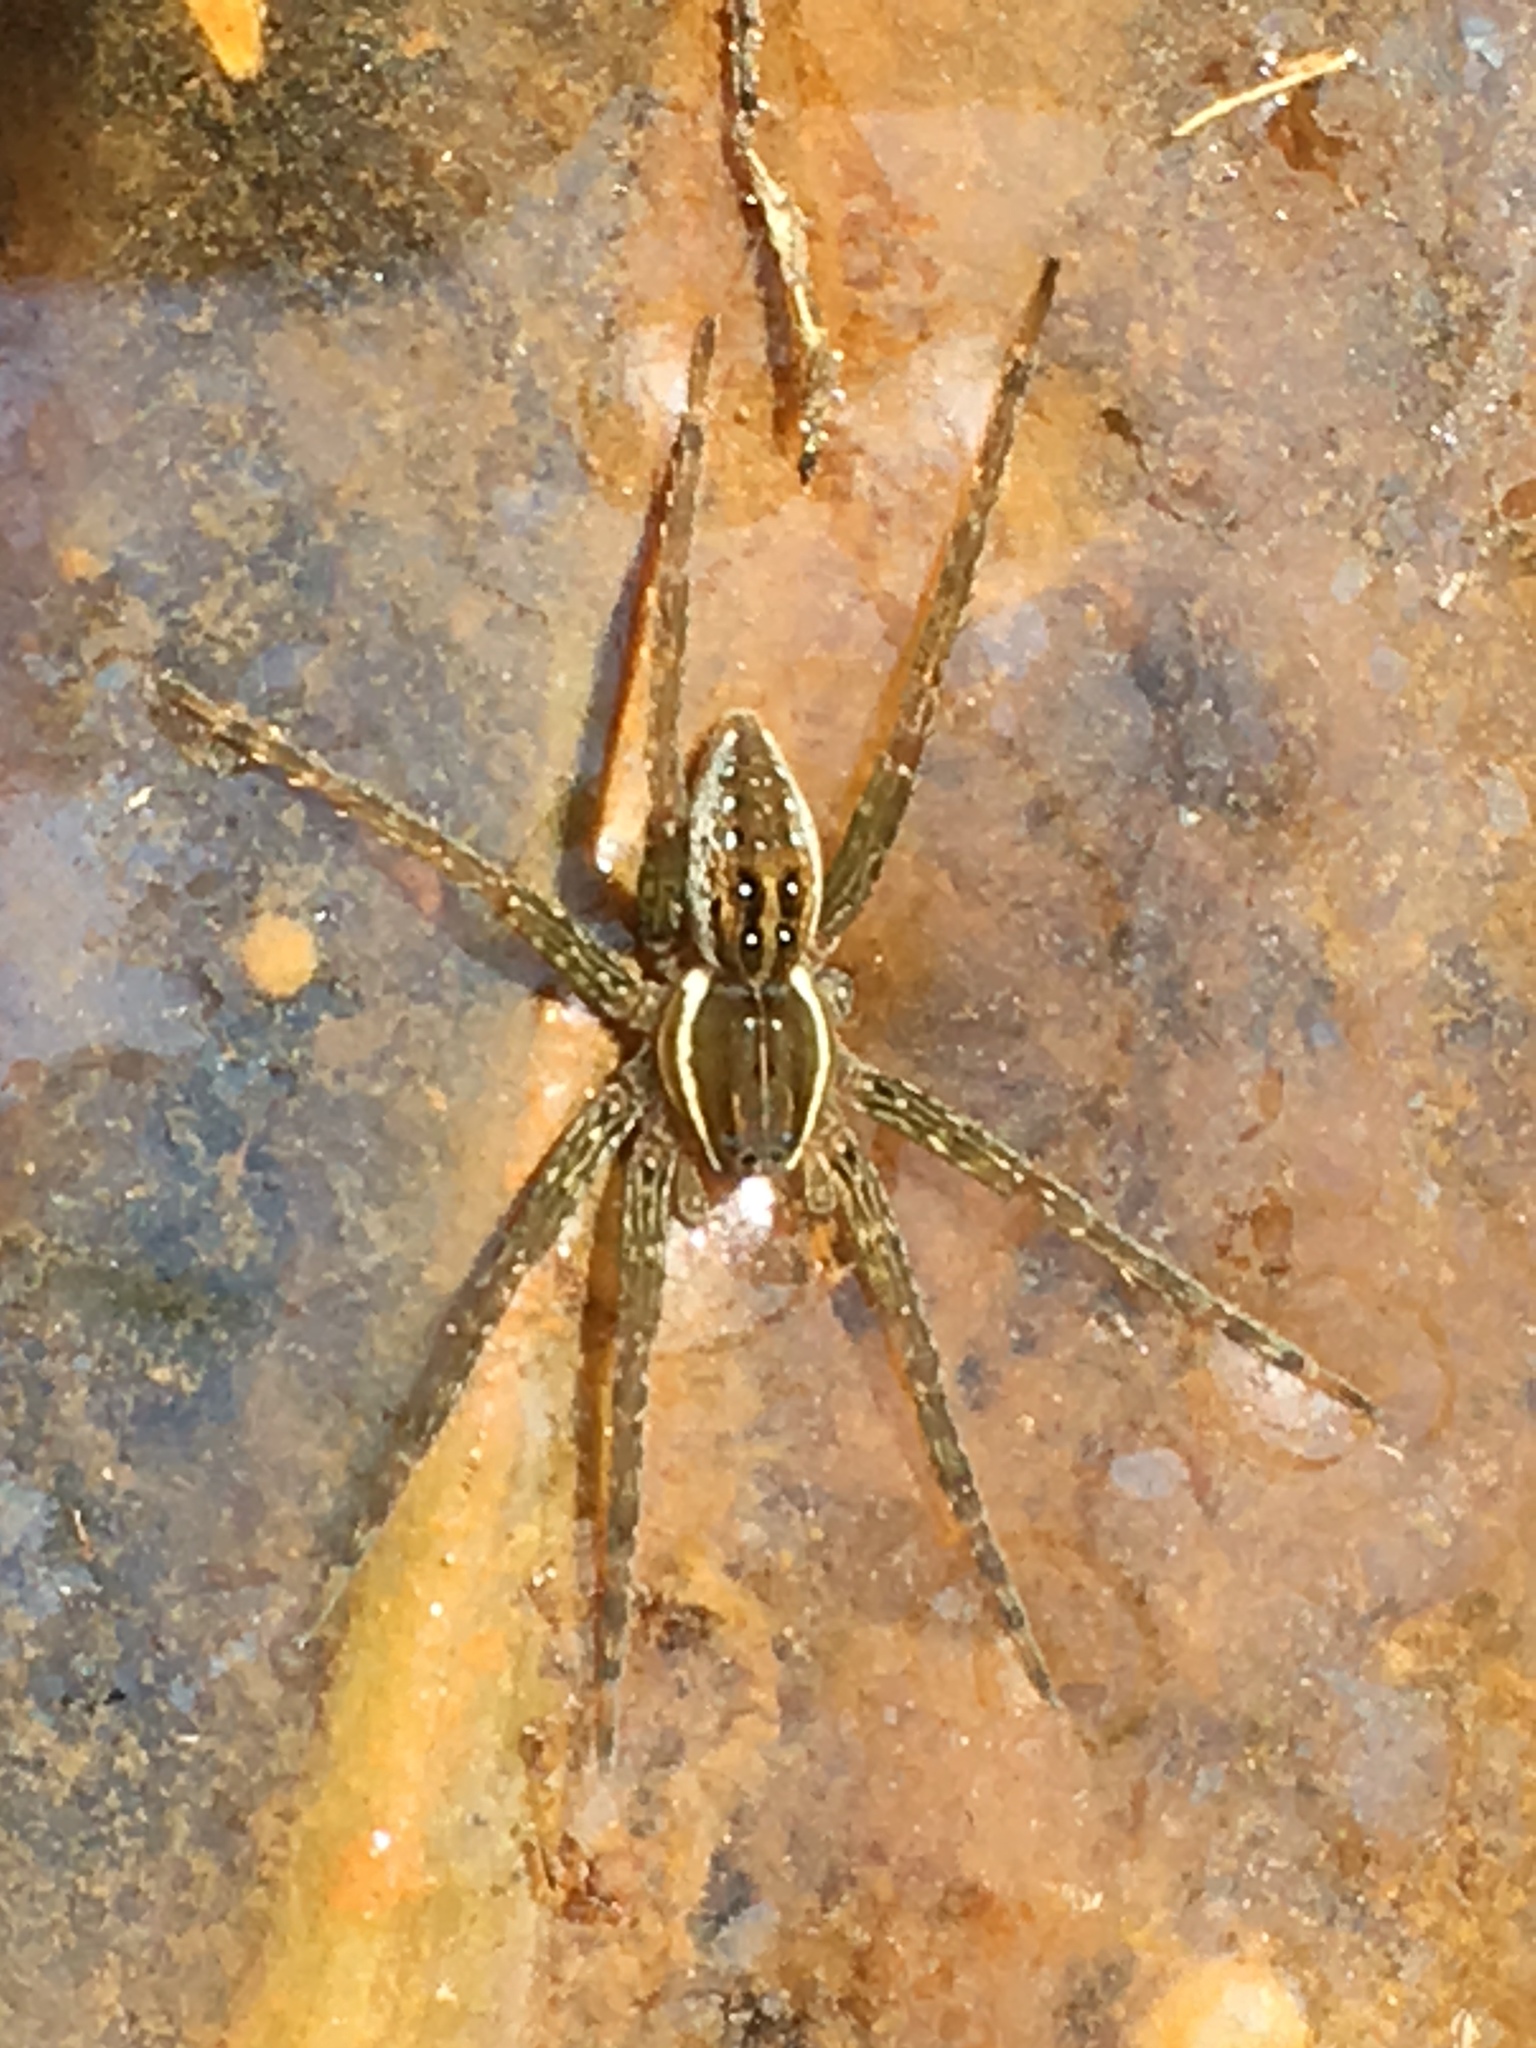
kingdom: Animalia
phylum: Arthropoda
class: Arachnida
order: Araneae
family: Pisauridae
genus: Dolomedes
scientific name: Dolomedes triton
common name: Six-spotted fishing spider
